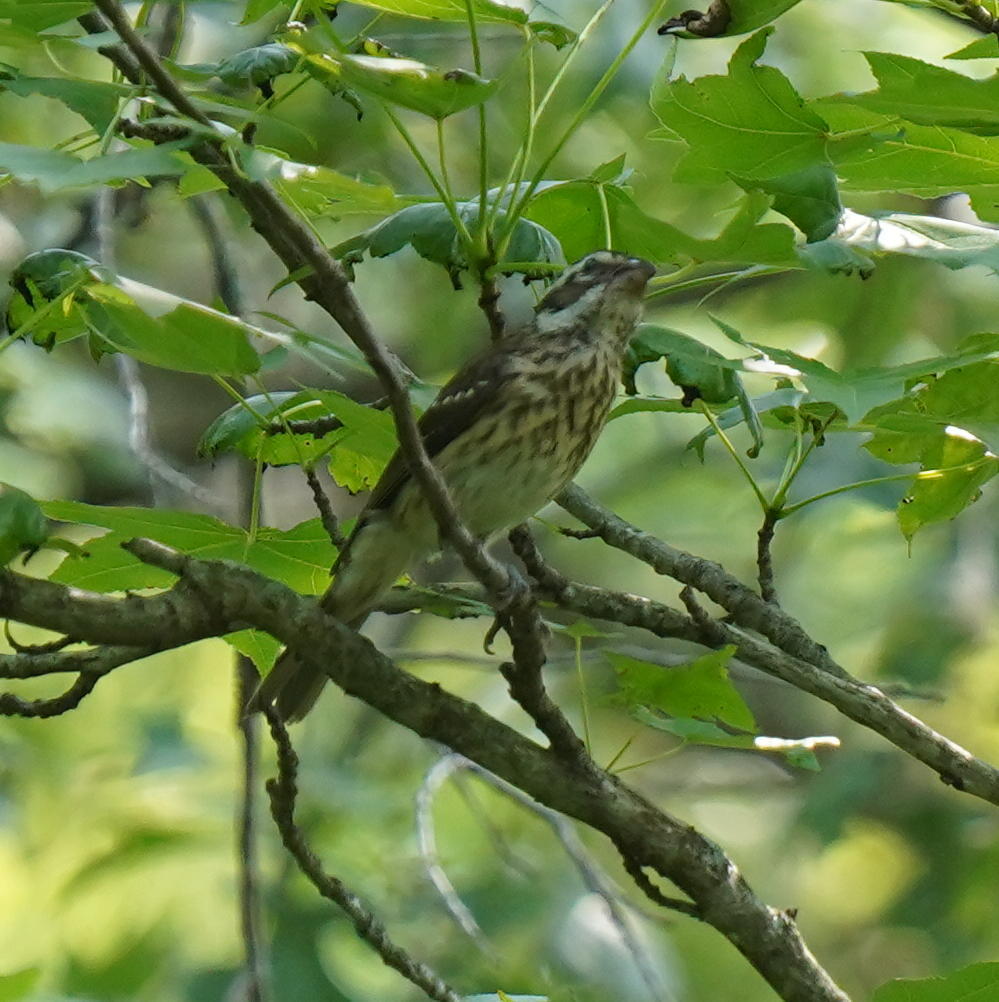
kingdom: Animalia
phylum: Chordata
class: Aves
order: Passeriformes
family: Cardinalidae
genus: Pheucticus
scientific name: Pheucticus ludovicianus
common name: Rose-breasted grosbeak
